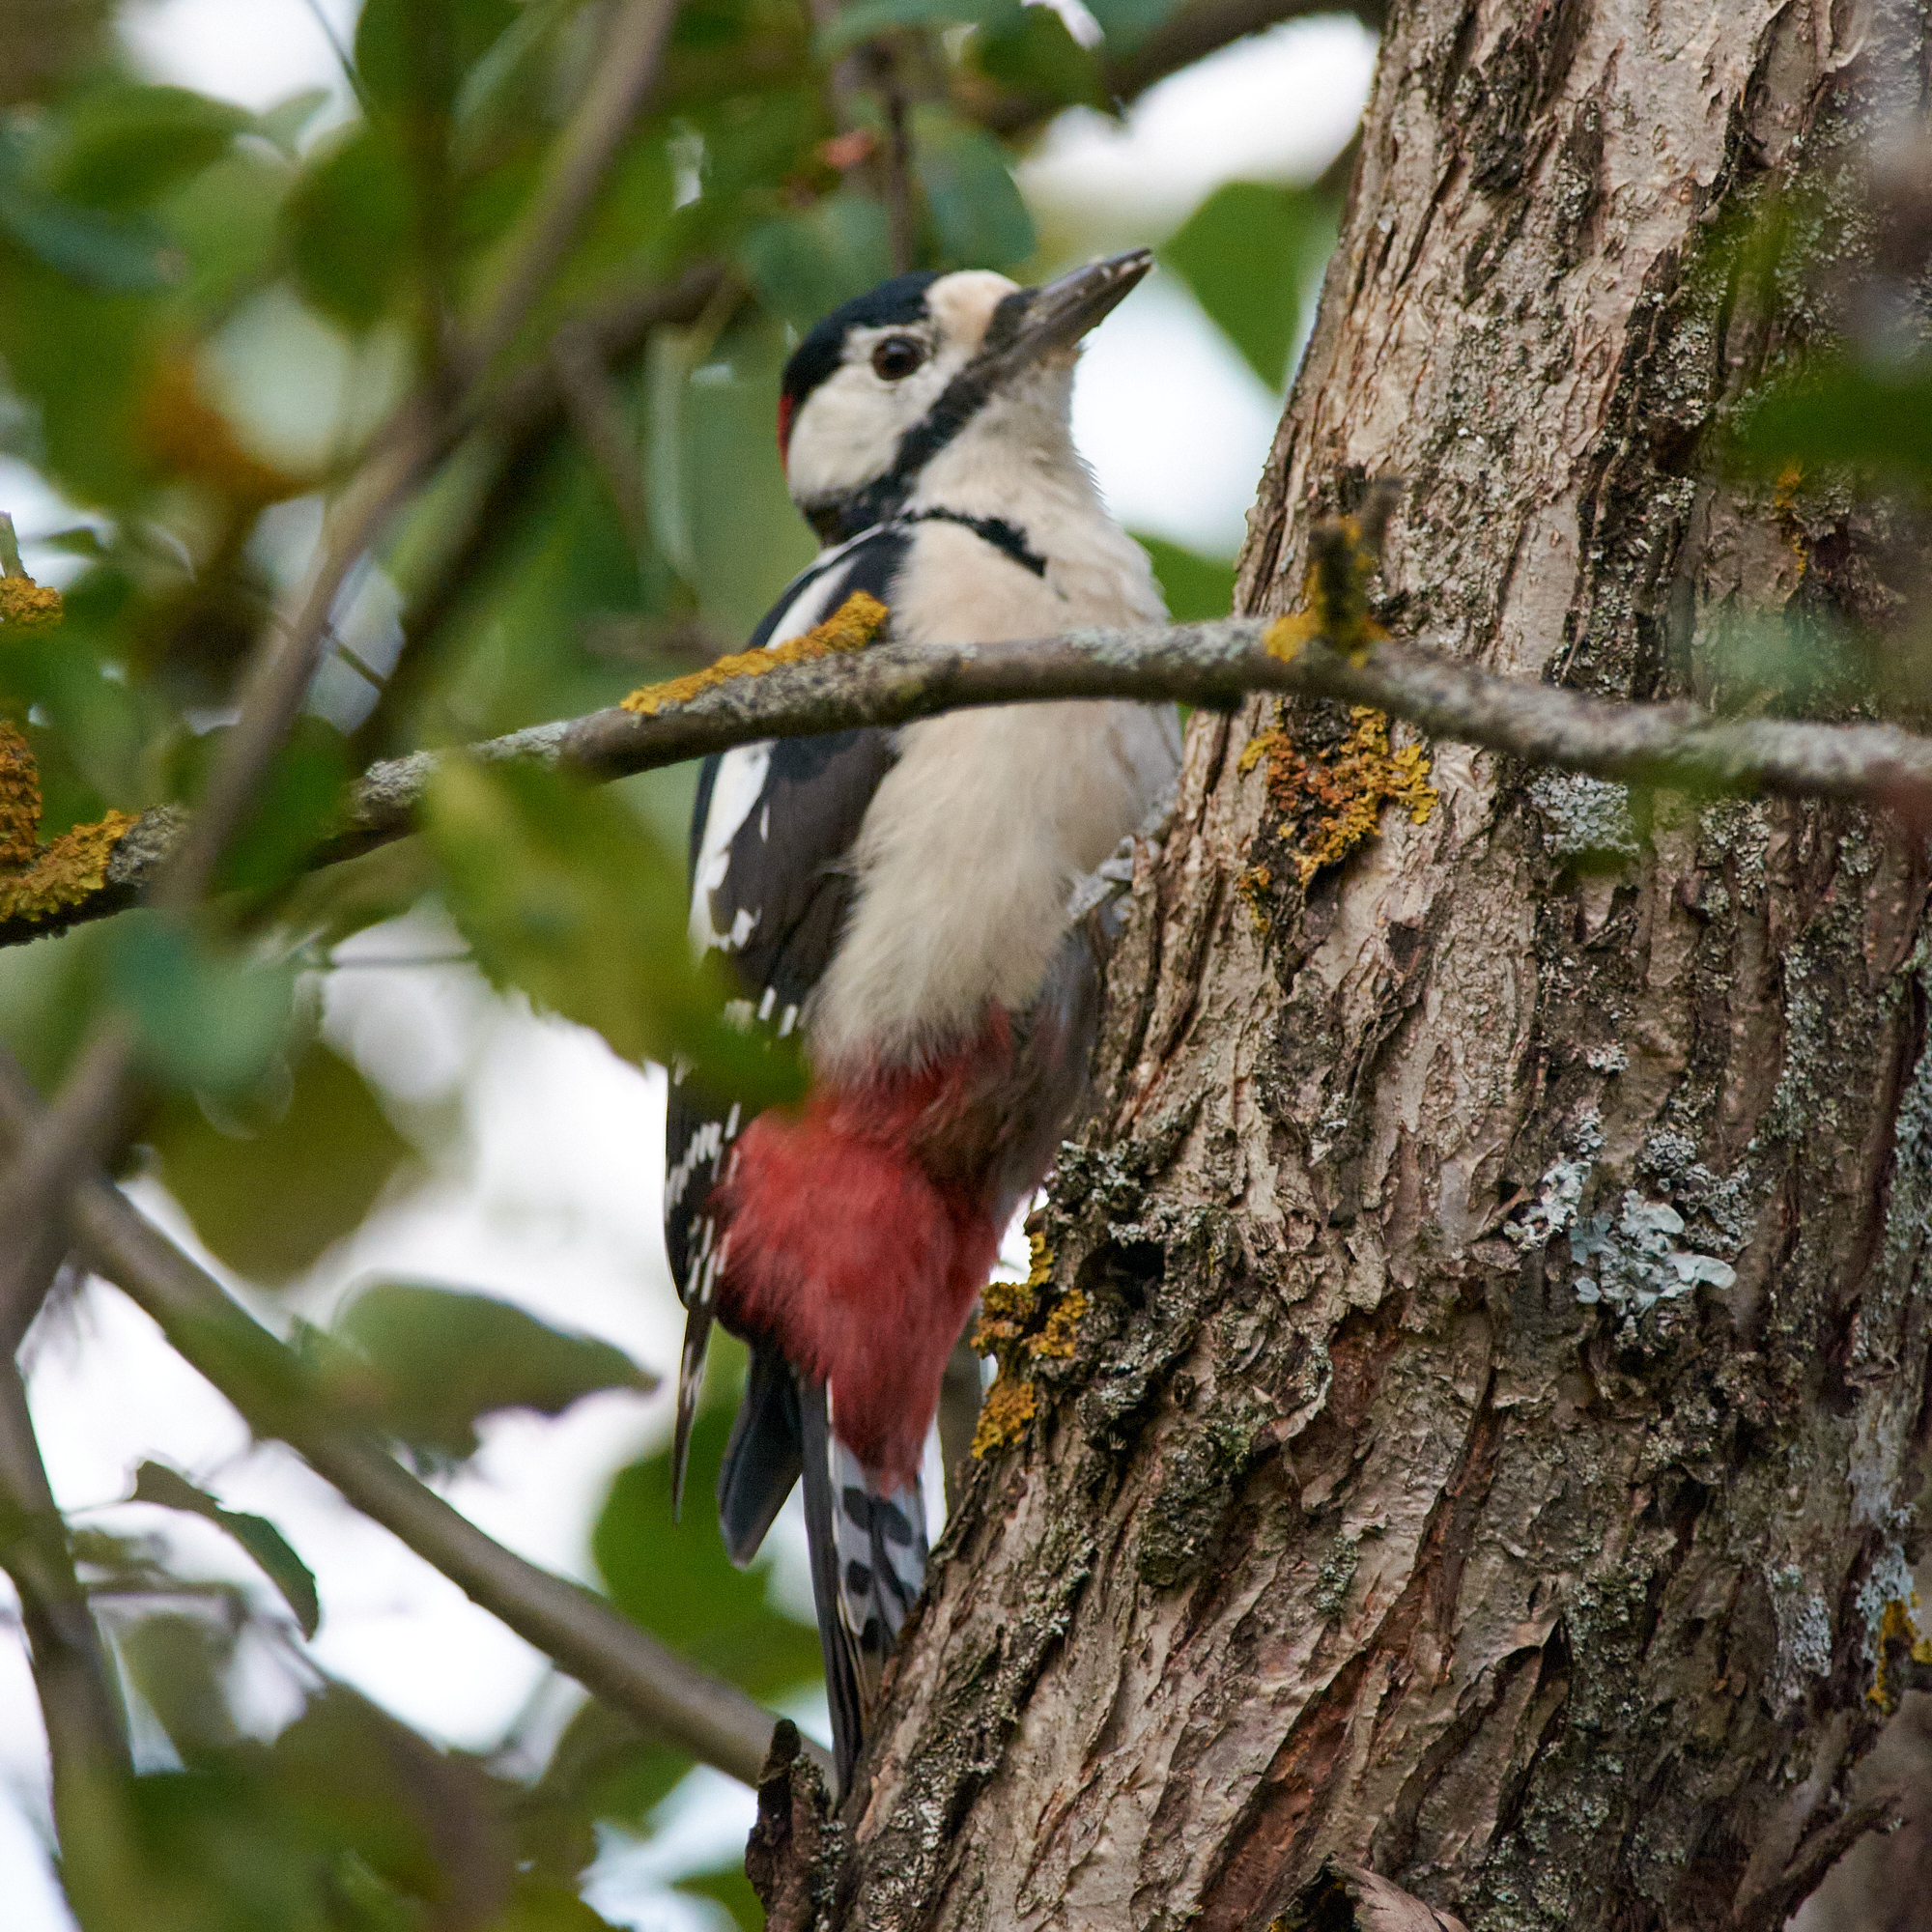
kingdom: Animalia
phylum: Chordata
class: Aves
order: Piciformes
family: Picidae
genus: Dendrocopos
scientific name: Dendrocopos major
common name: Great spotted woodpecker
